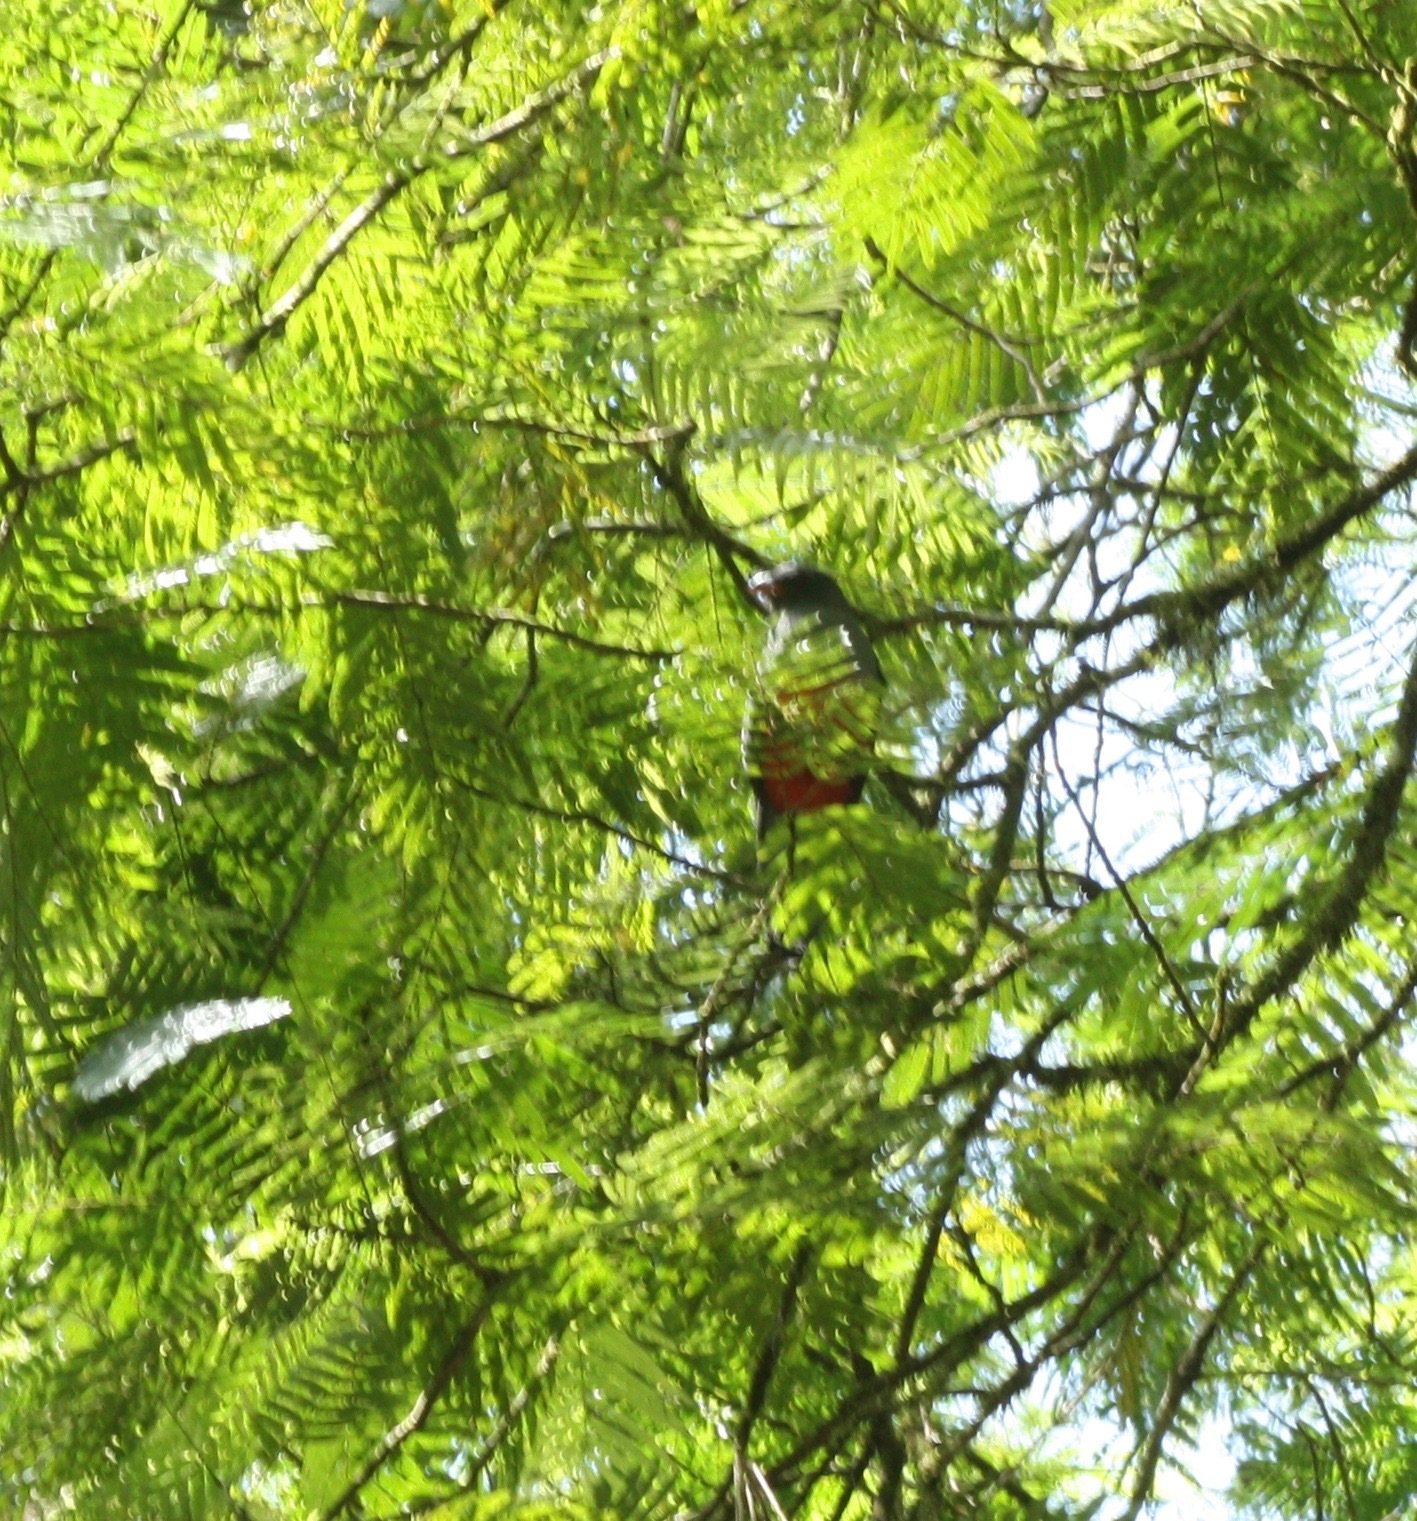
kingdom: Animalia
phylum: Chordata
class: Aves
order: Trogoniformes
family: Trogonidae
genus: Trogon
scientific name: Trogon massena
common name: Slaty-tailed trogon
